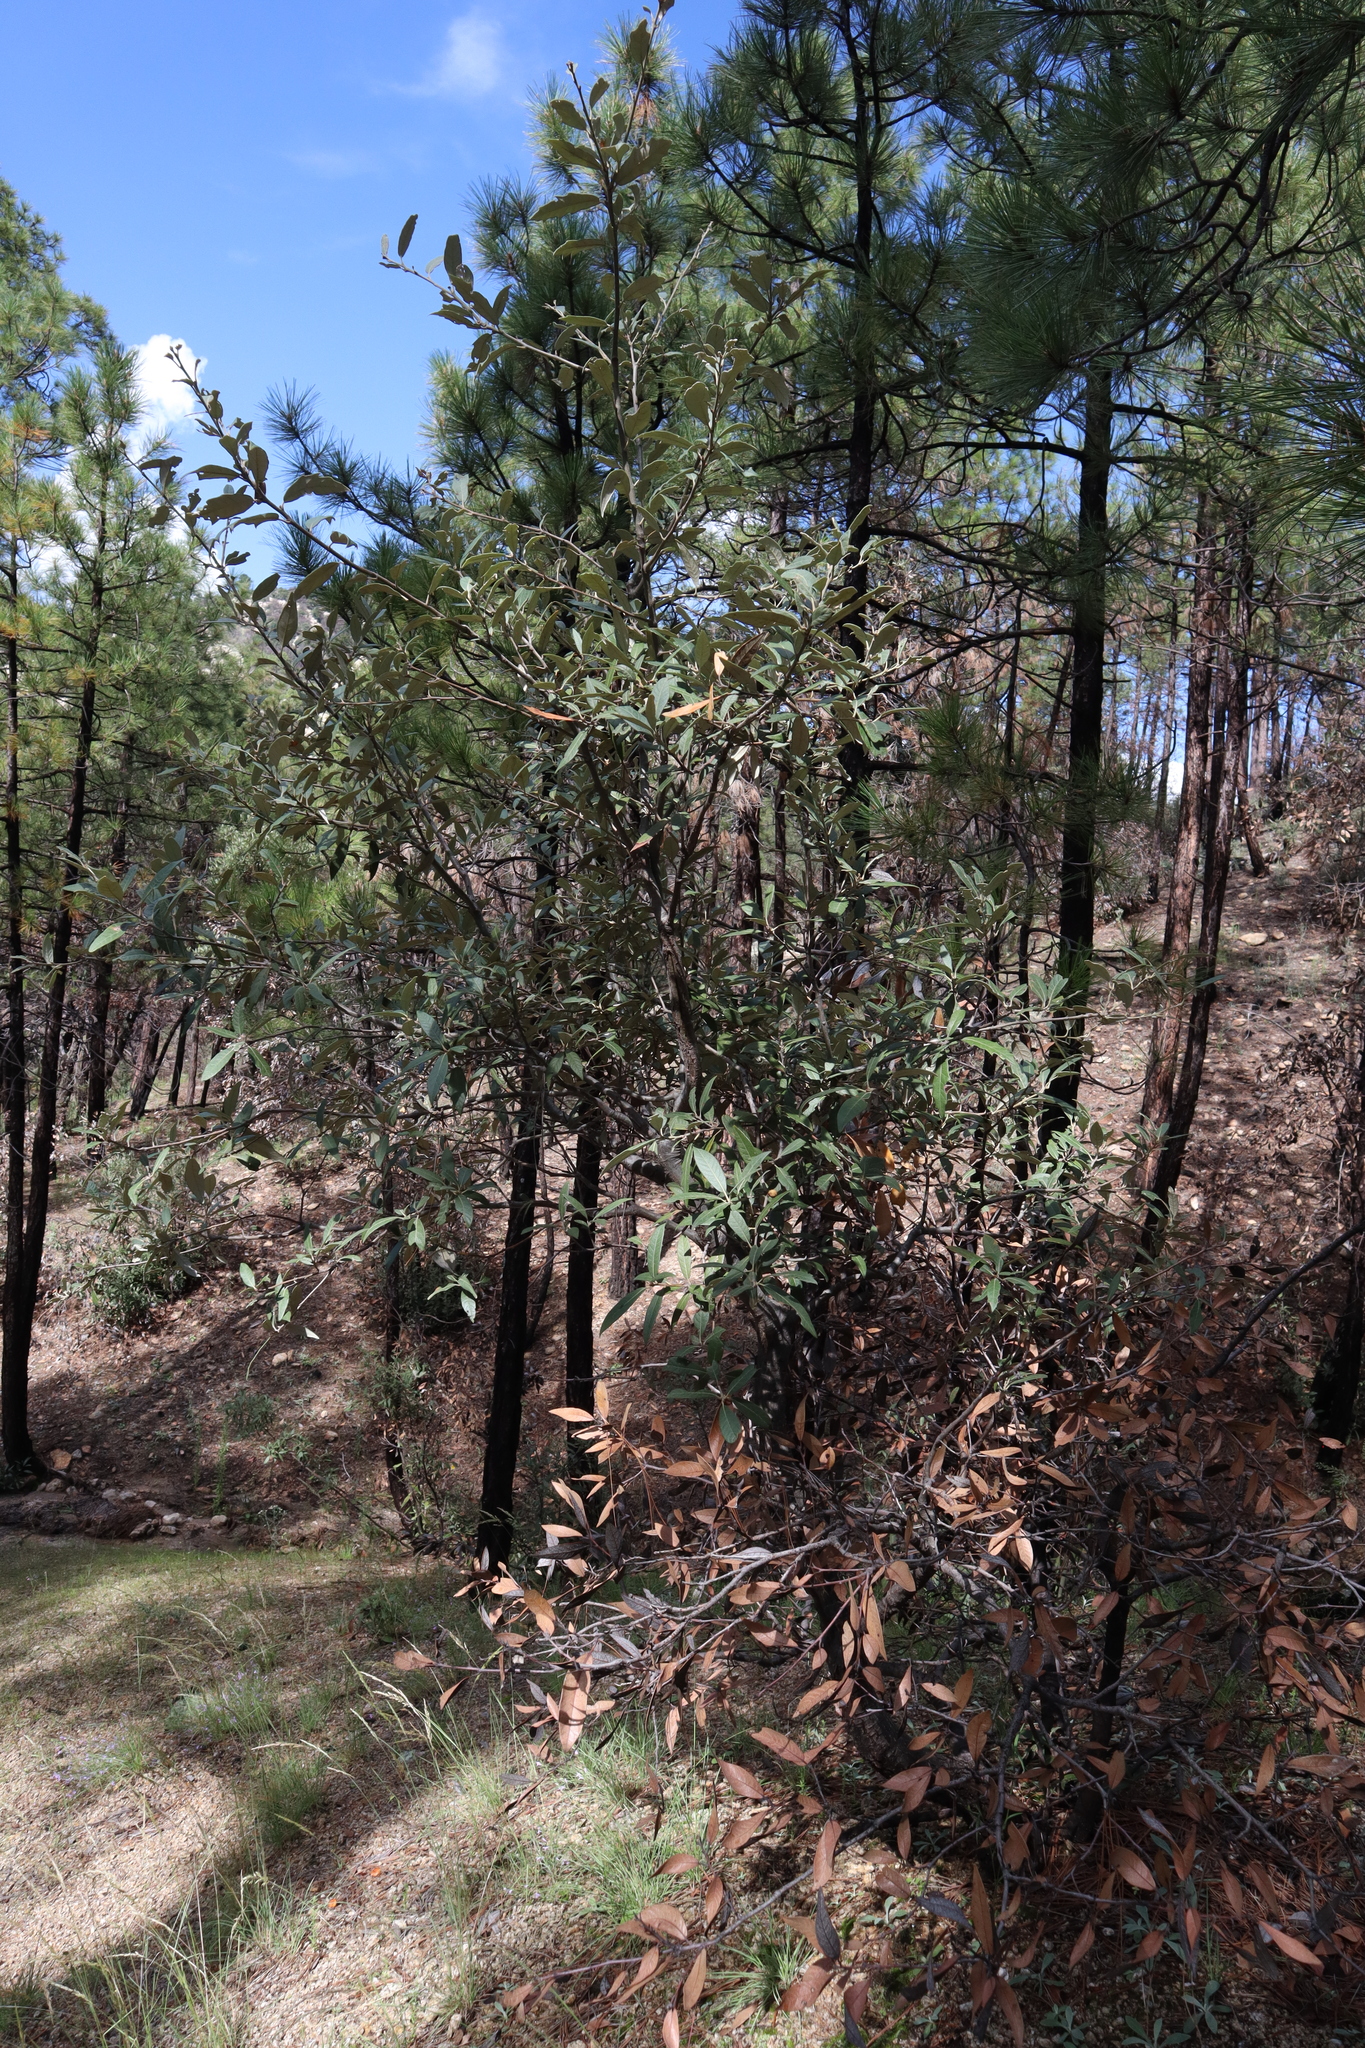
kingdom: Plantae
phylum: Tracheophyta
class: Magnoliopsida
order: Fagales
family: Fagaceae
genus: Quercus
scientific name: Quercus hypoleucoides
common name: Silverleaf oak
